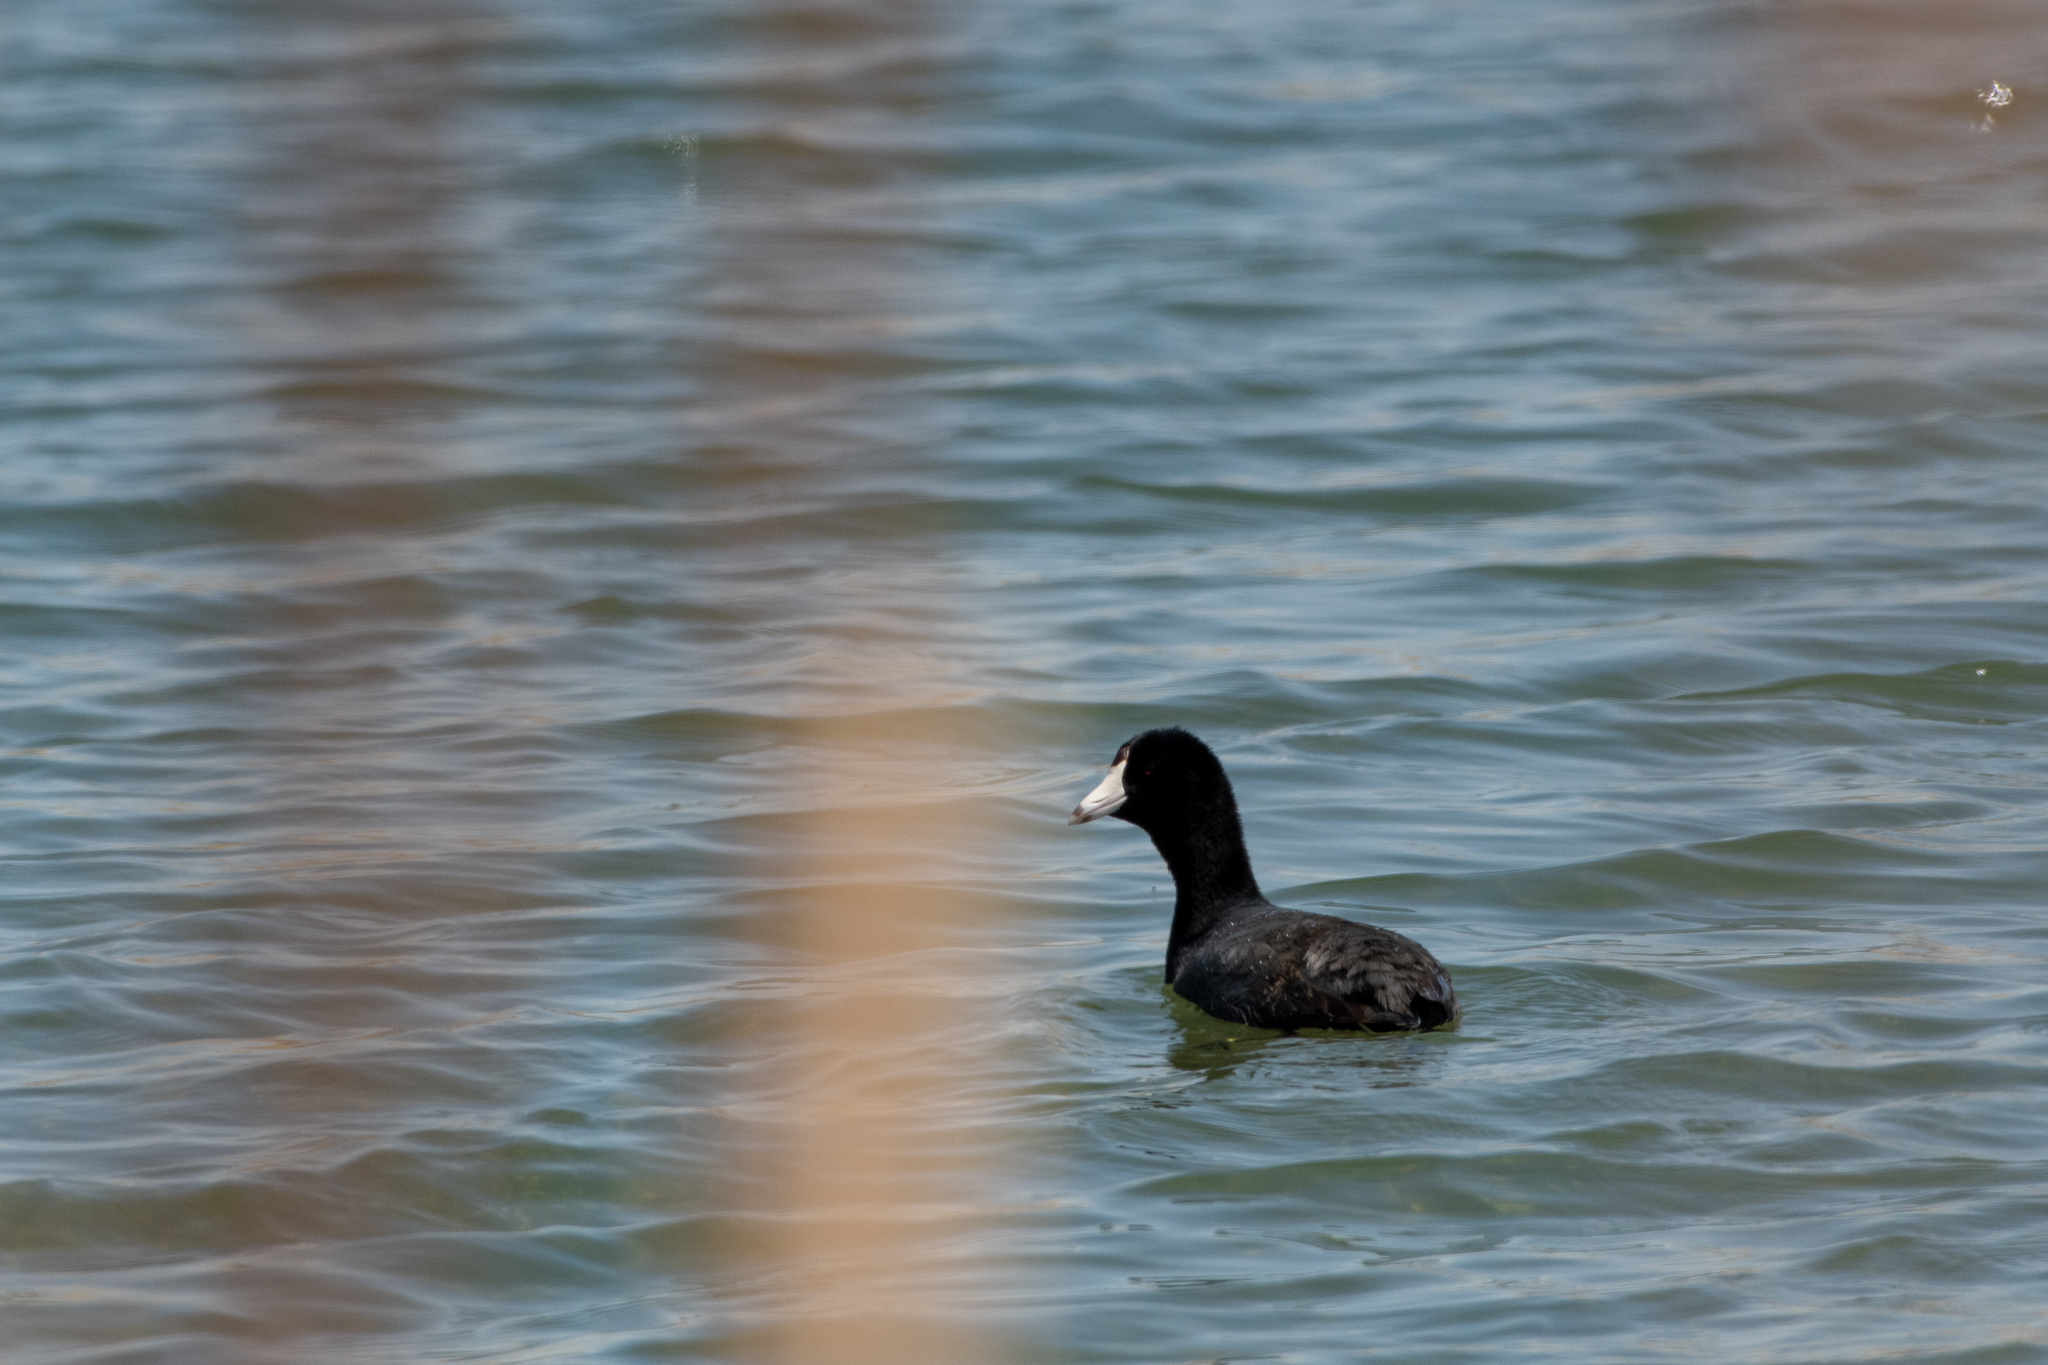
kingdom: Animalia
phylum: Chordata
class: Aves
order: Gruiformes
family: Rallidae
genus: Fulica
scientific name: Fulica americana
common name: American coot
